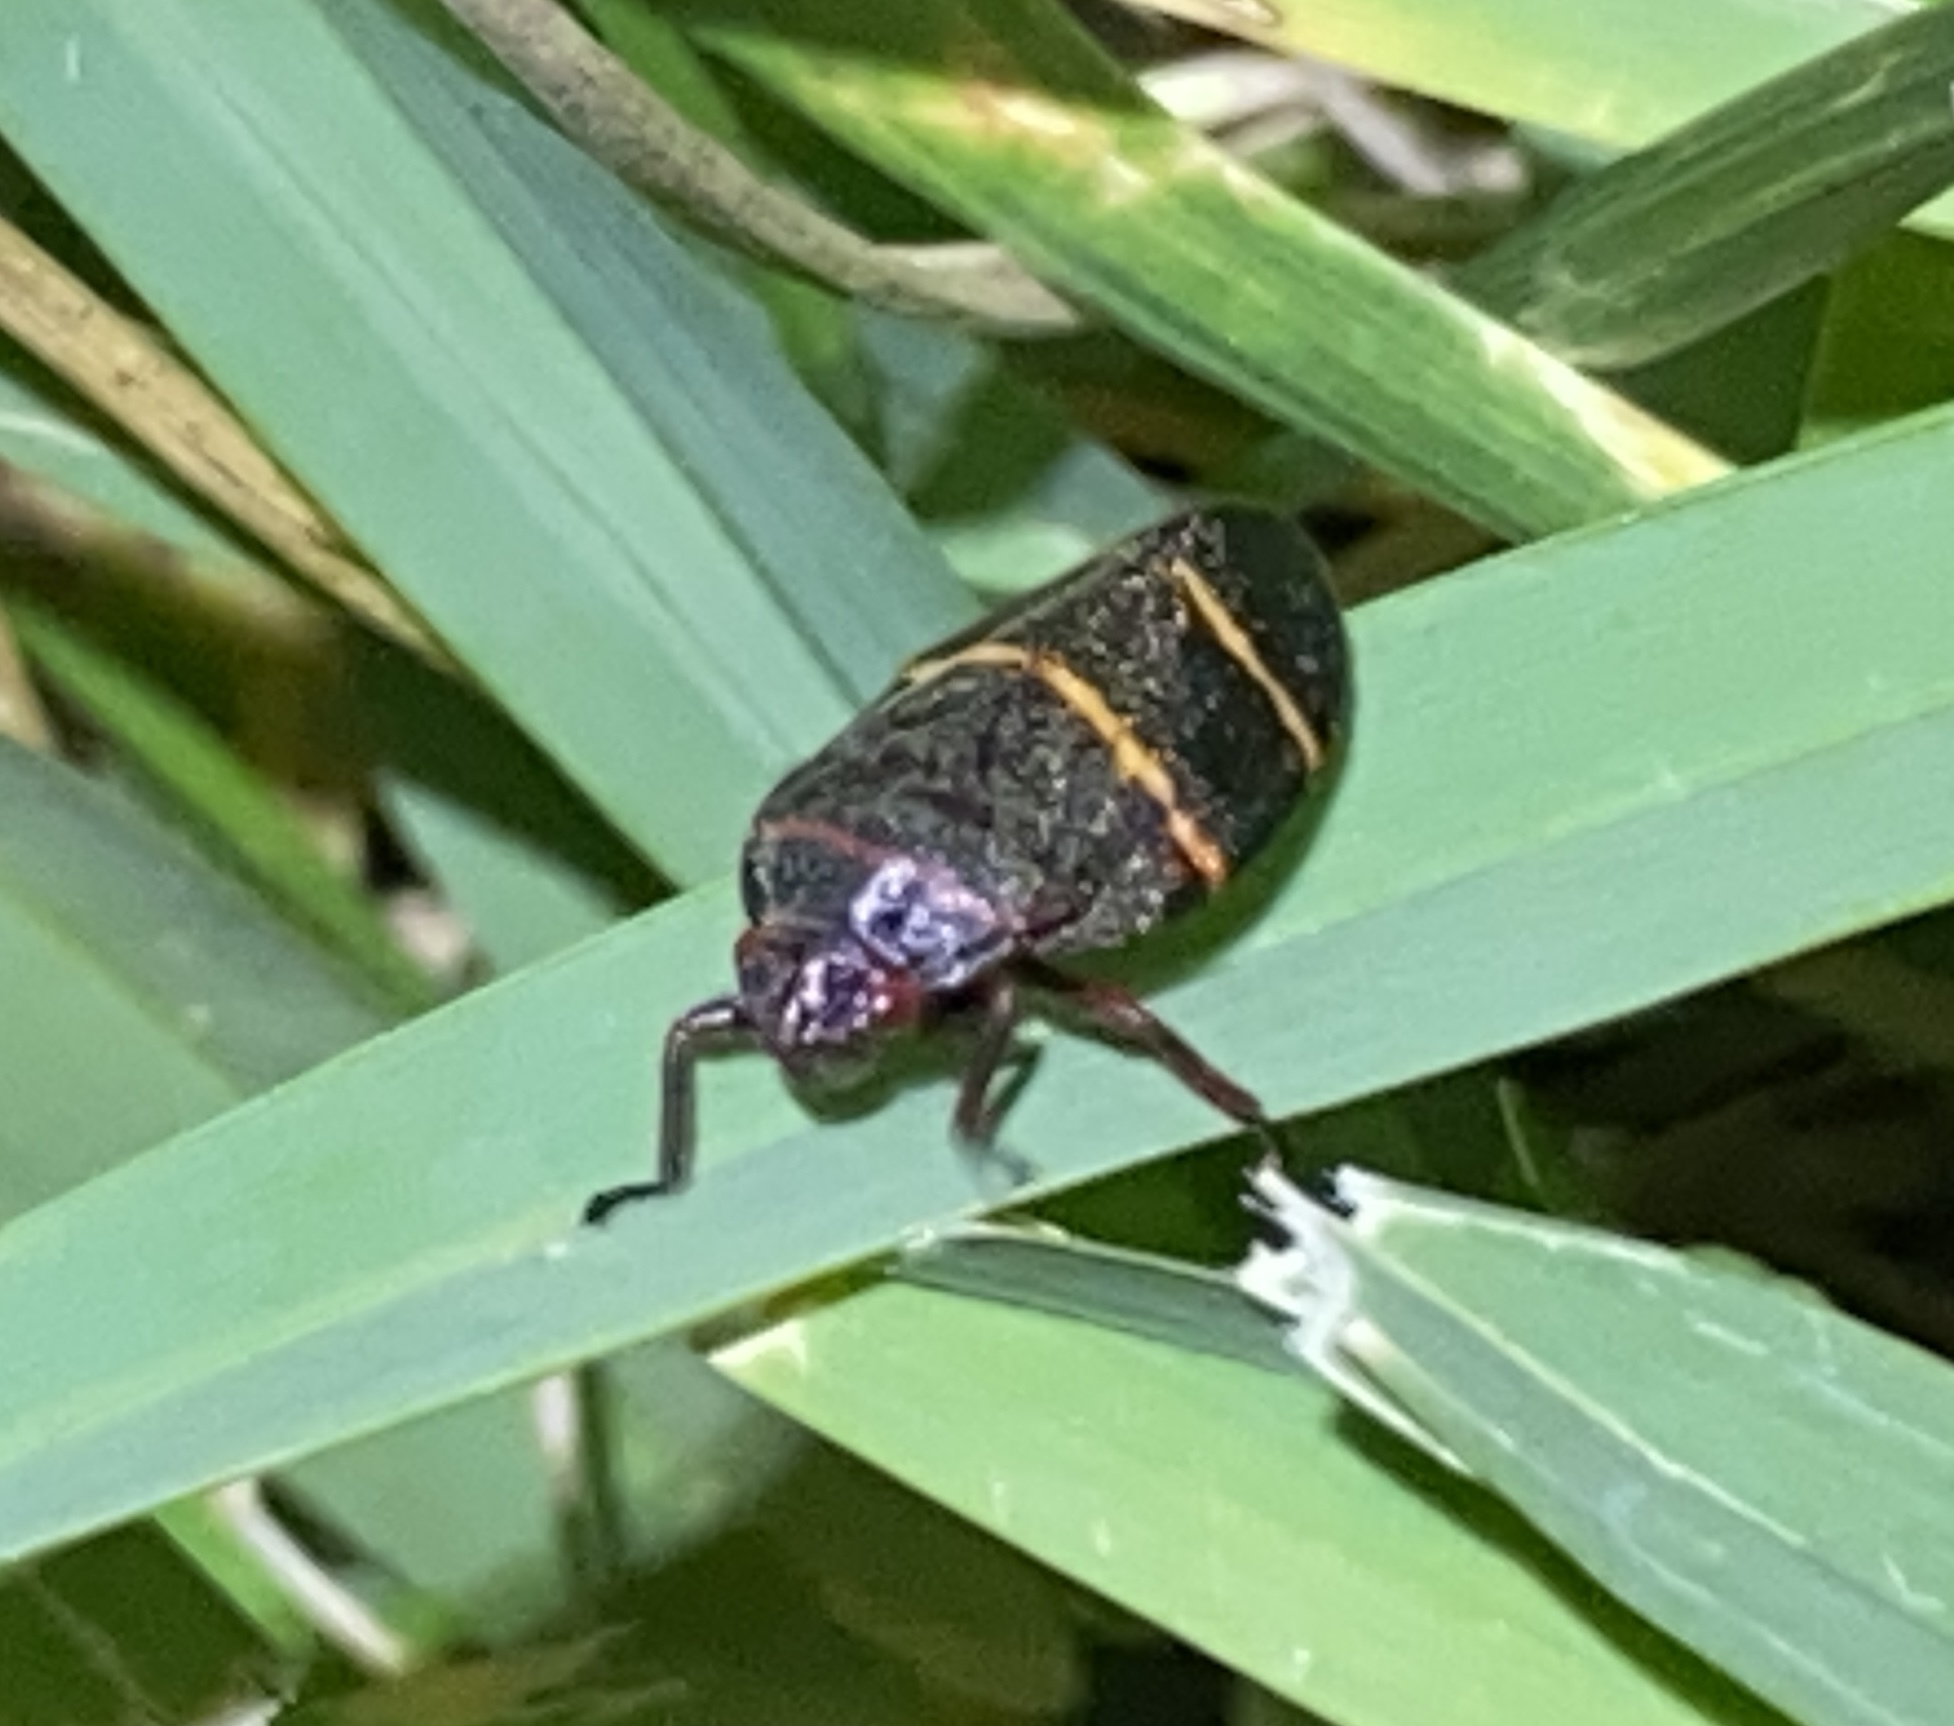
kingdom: Animalia
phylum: Arthropoda
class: Insecta
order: Hemiptera
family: Cercopidae
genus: Prosapia
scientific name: Prosapia bicincta
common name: Twolined spittlebug
